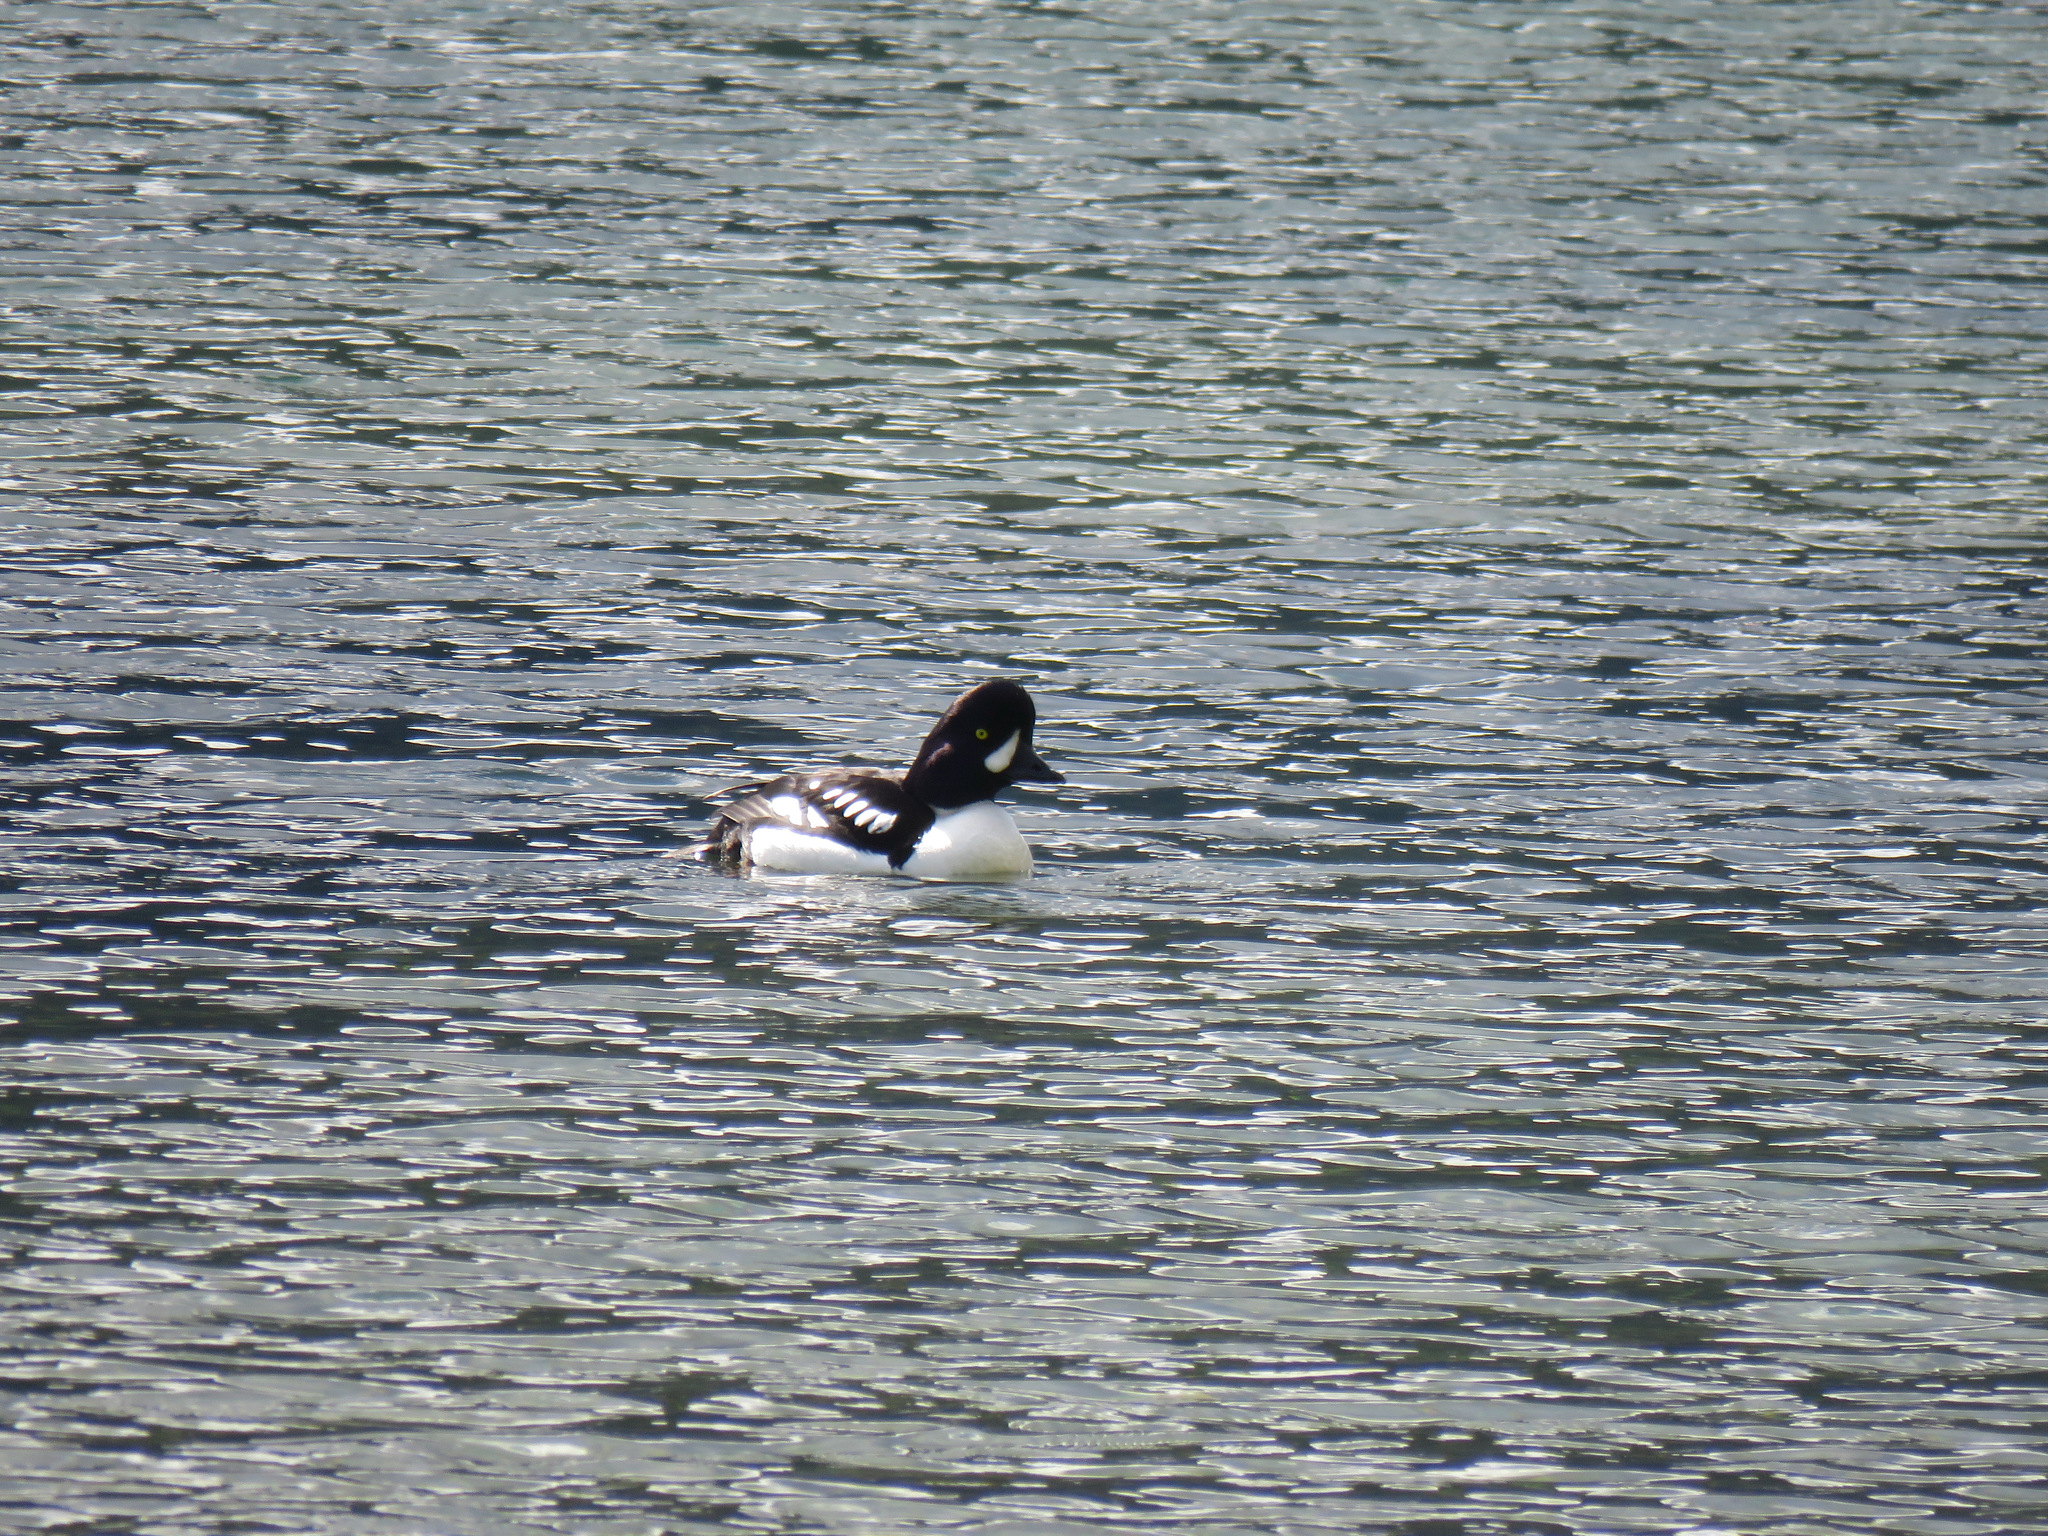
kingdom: Animalia
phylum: Chordata
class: Aves
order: Anseriformes
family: Anatidae
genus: Bucephala
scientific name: Bucephala islandica
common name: Barrow's goldeneye
